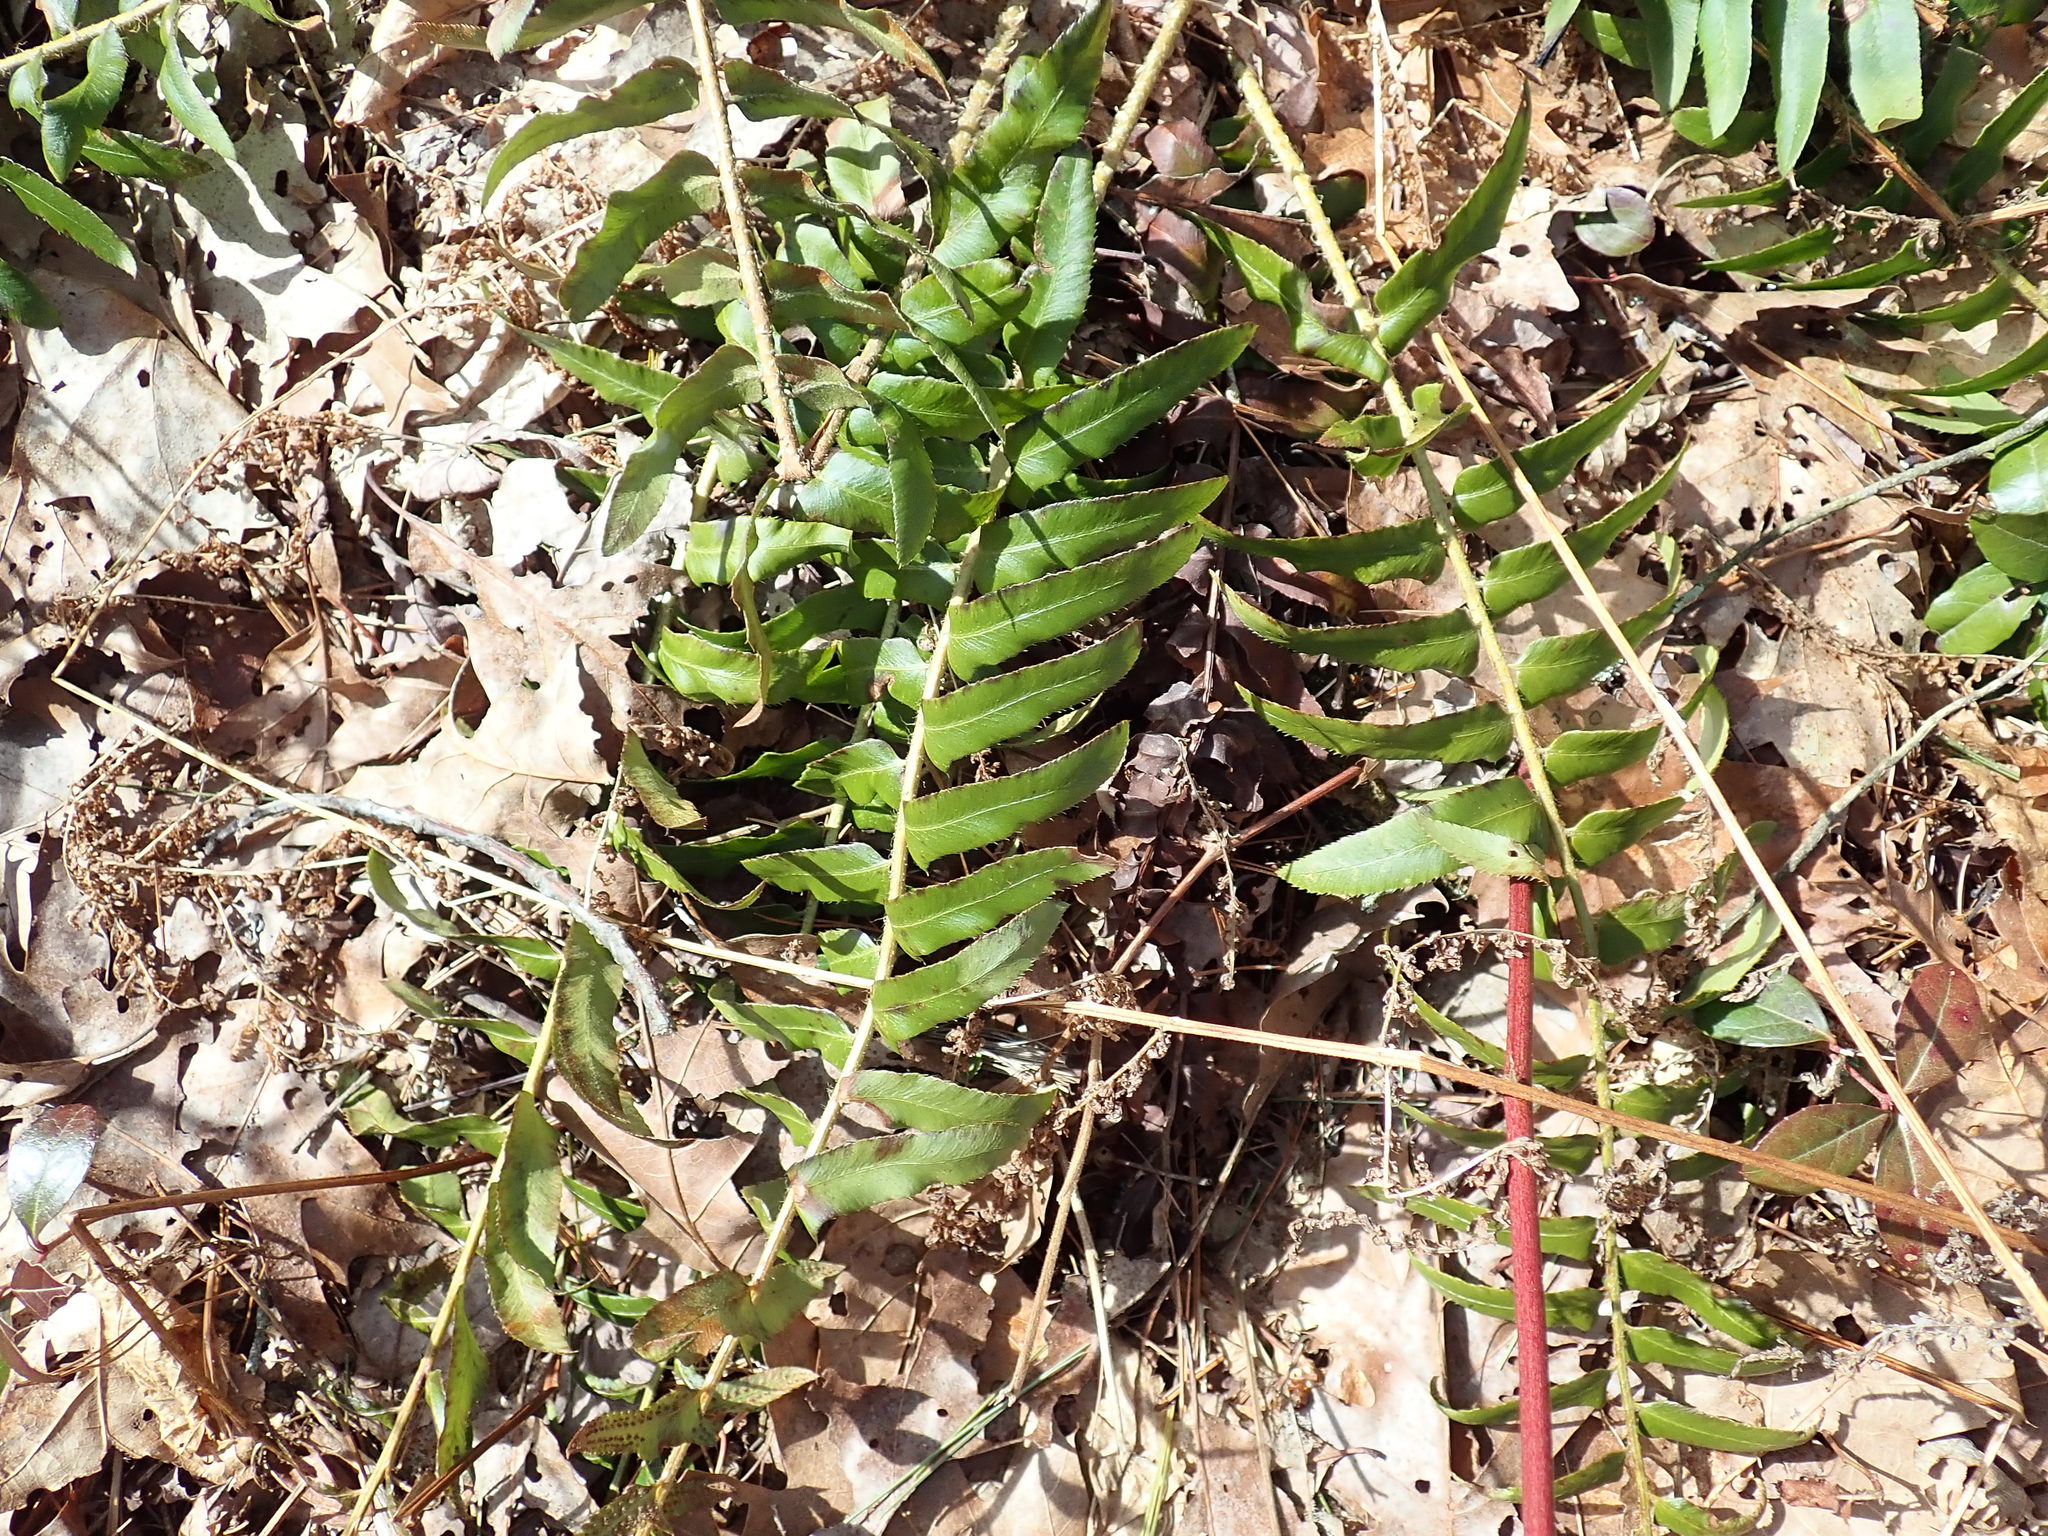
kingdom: Plantae
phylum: Tracheophyta
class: Polypodiopsida
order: Polypodiales
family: Dryopteridaceae
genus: Polystichum
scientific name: Polystichum acrostichoides
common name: Christmas fern
